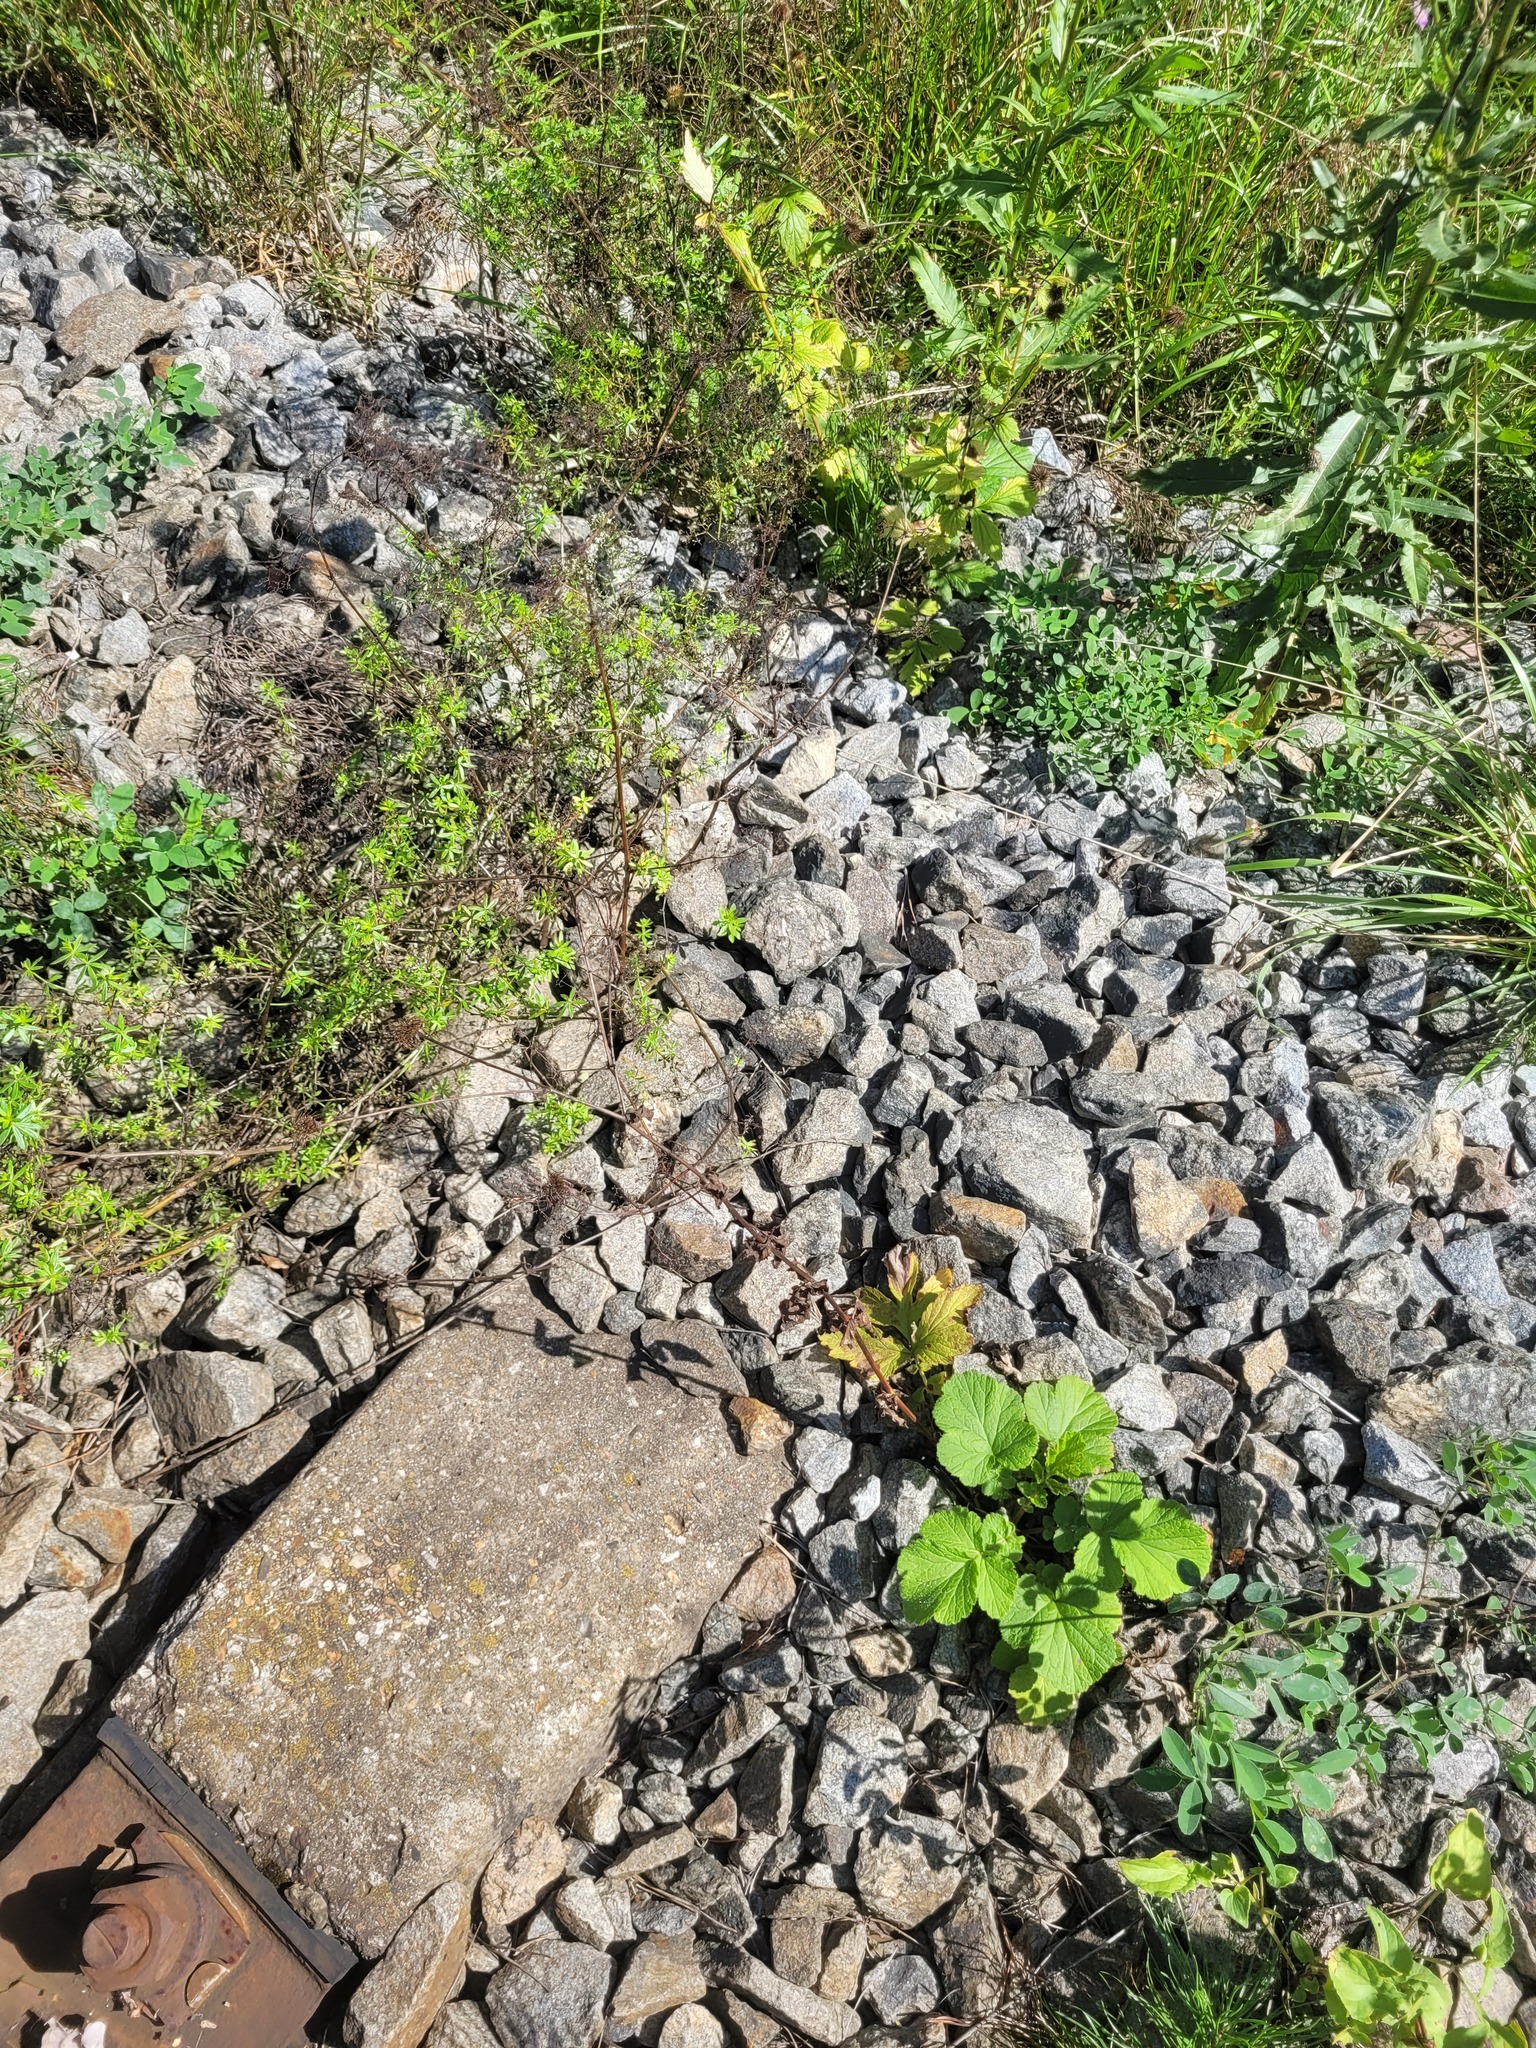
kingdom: Plantae
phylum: Tracheophyta
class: Magnoliopsida
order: Rosales
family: Rosaceae
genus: Geum
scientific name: Geum urbanum
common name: Wood avens
